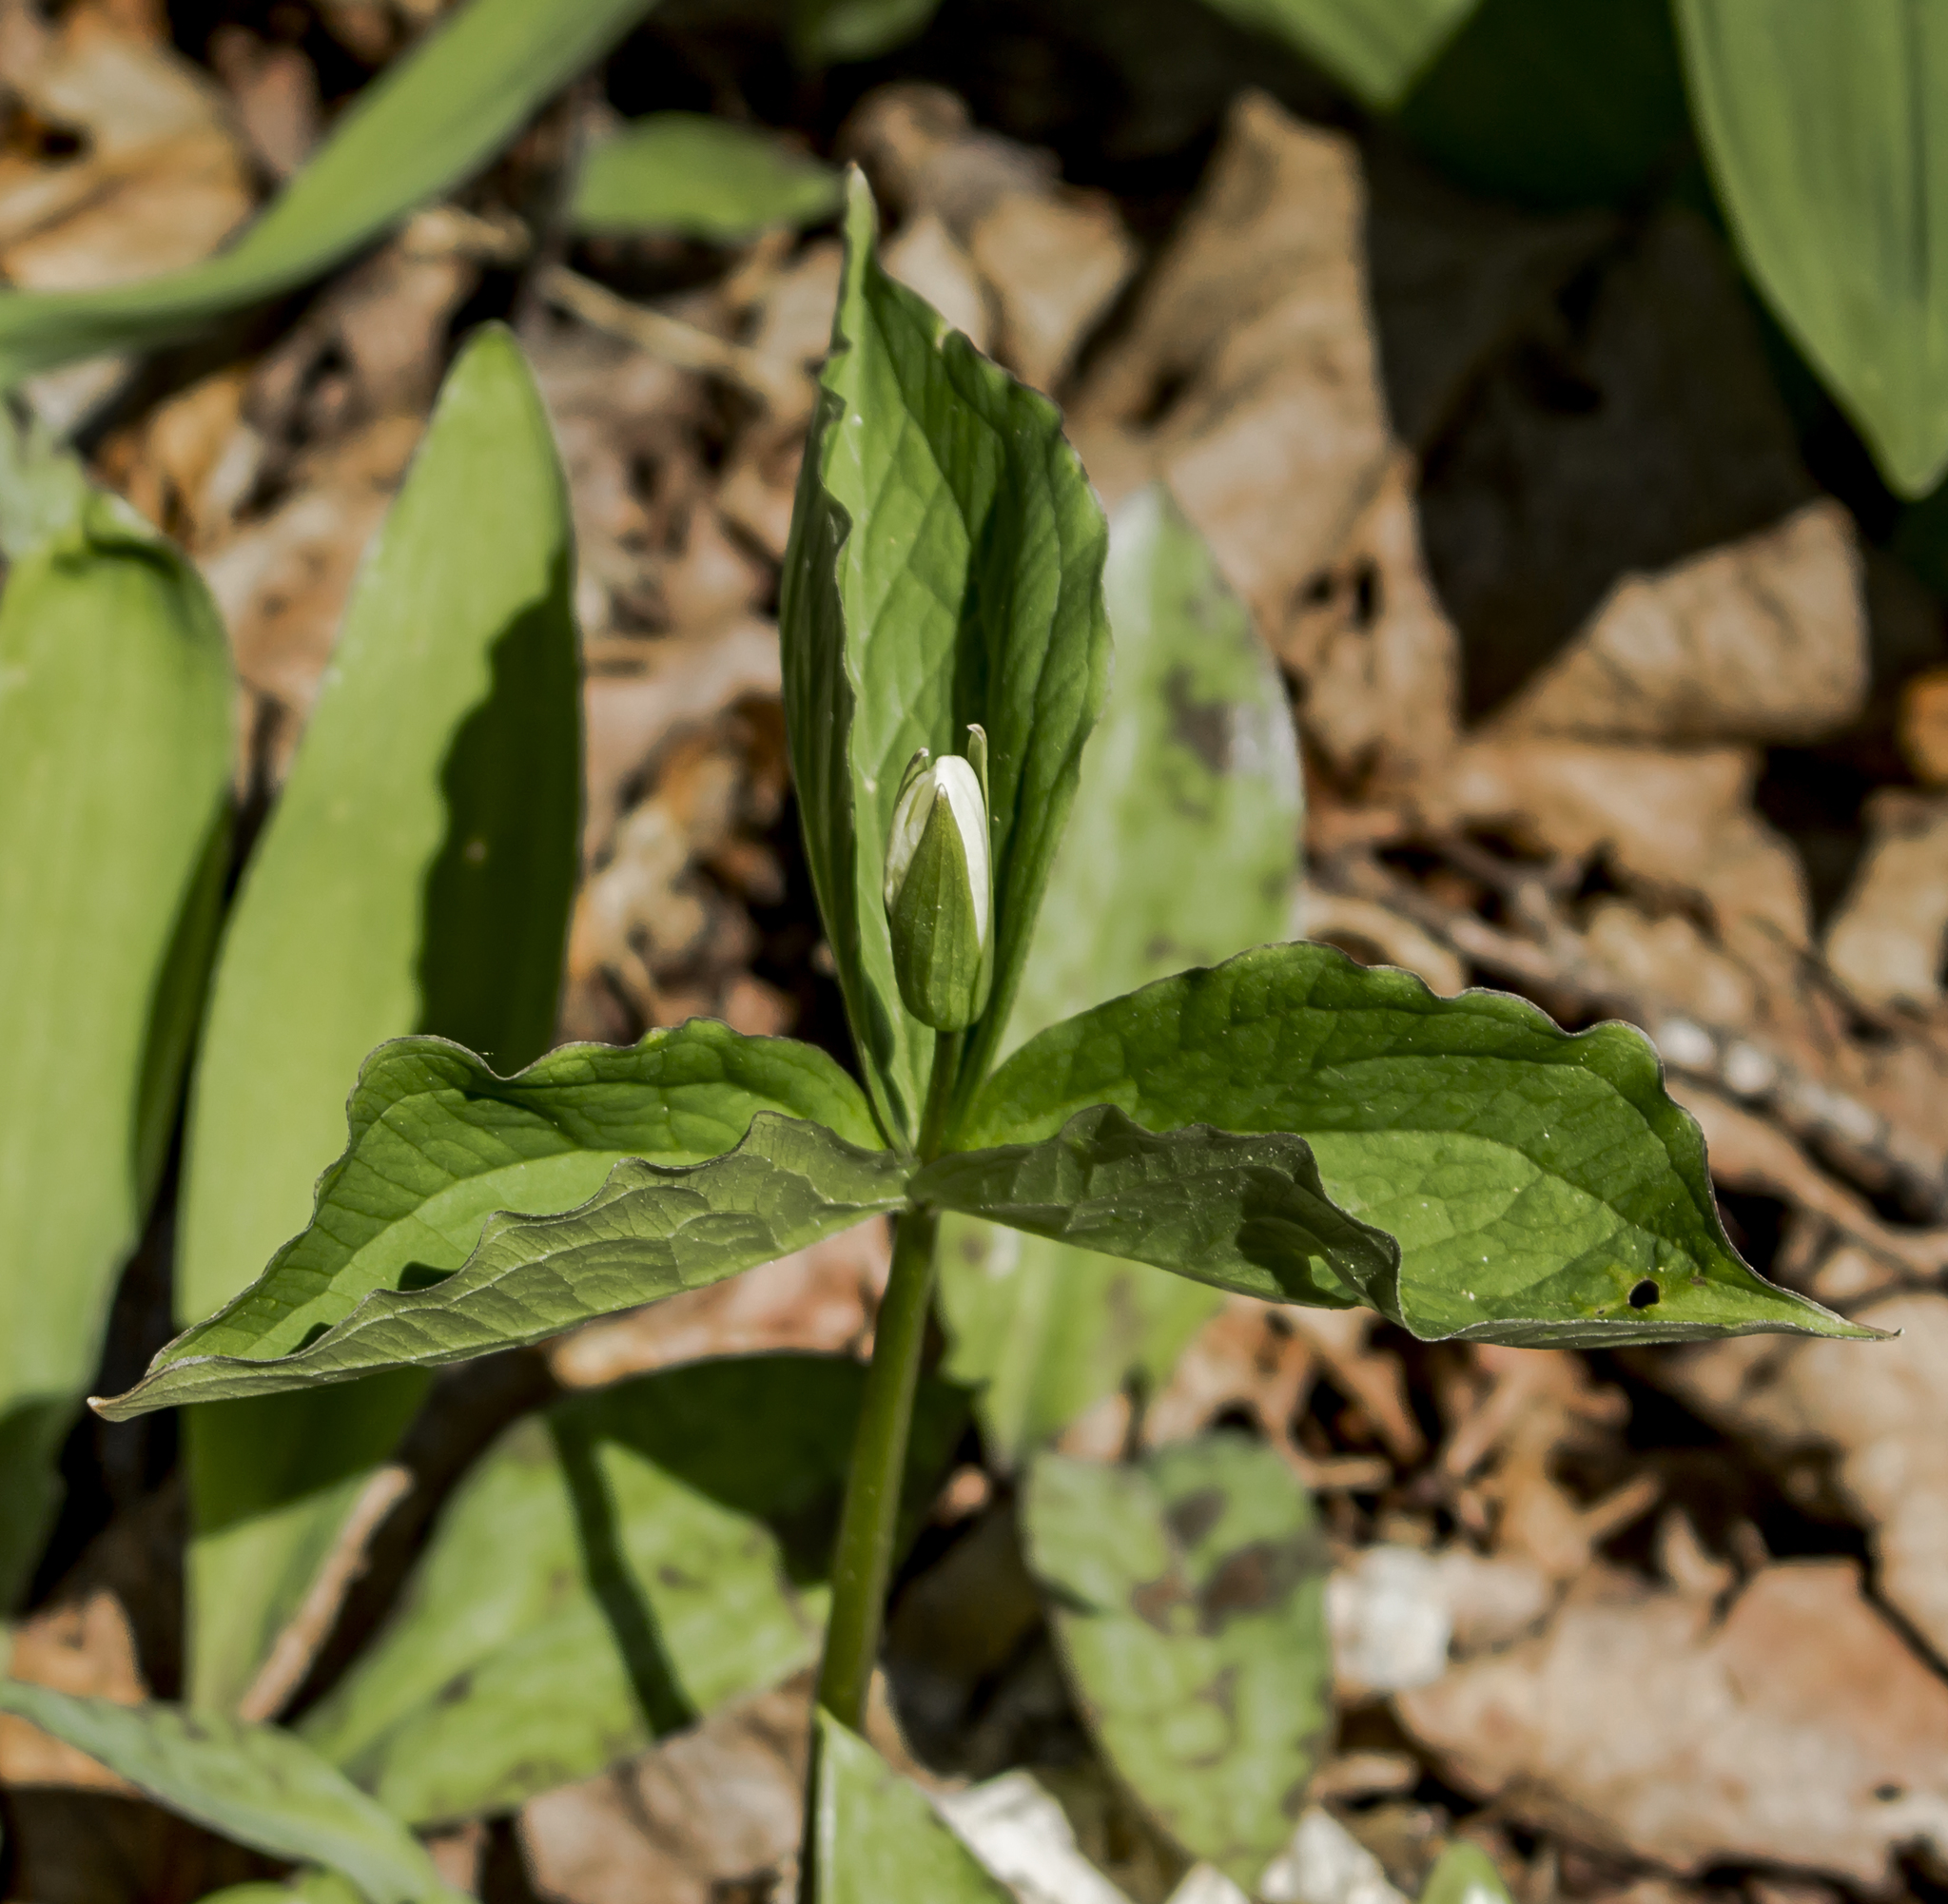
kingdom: Plantae
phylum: Tracheophyta
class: Liliopsida
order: Liliales
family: Melanthiaceae
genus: Trillium
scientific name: Trillium grandiflorum
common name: Great white trillium
